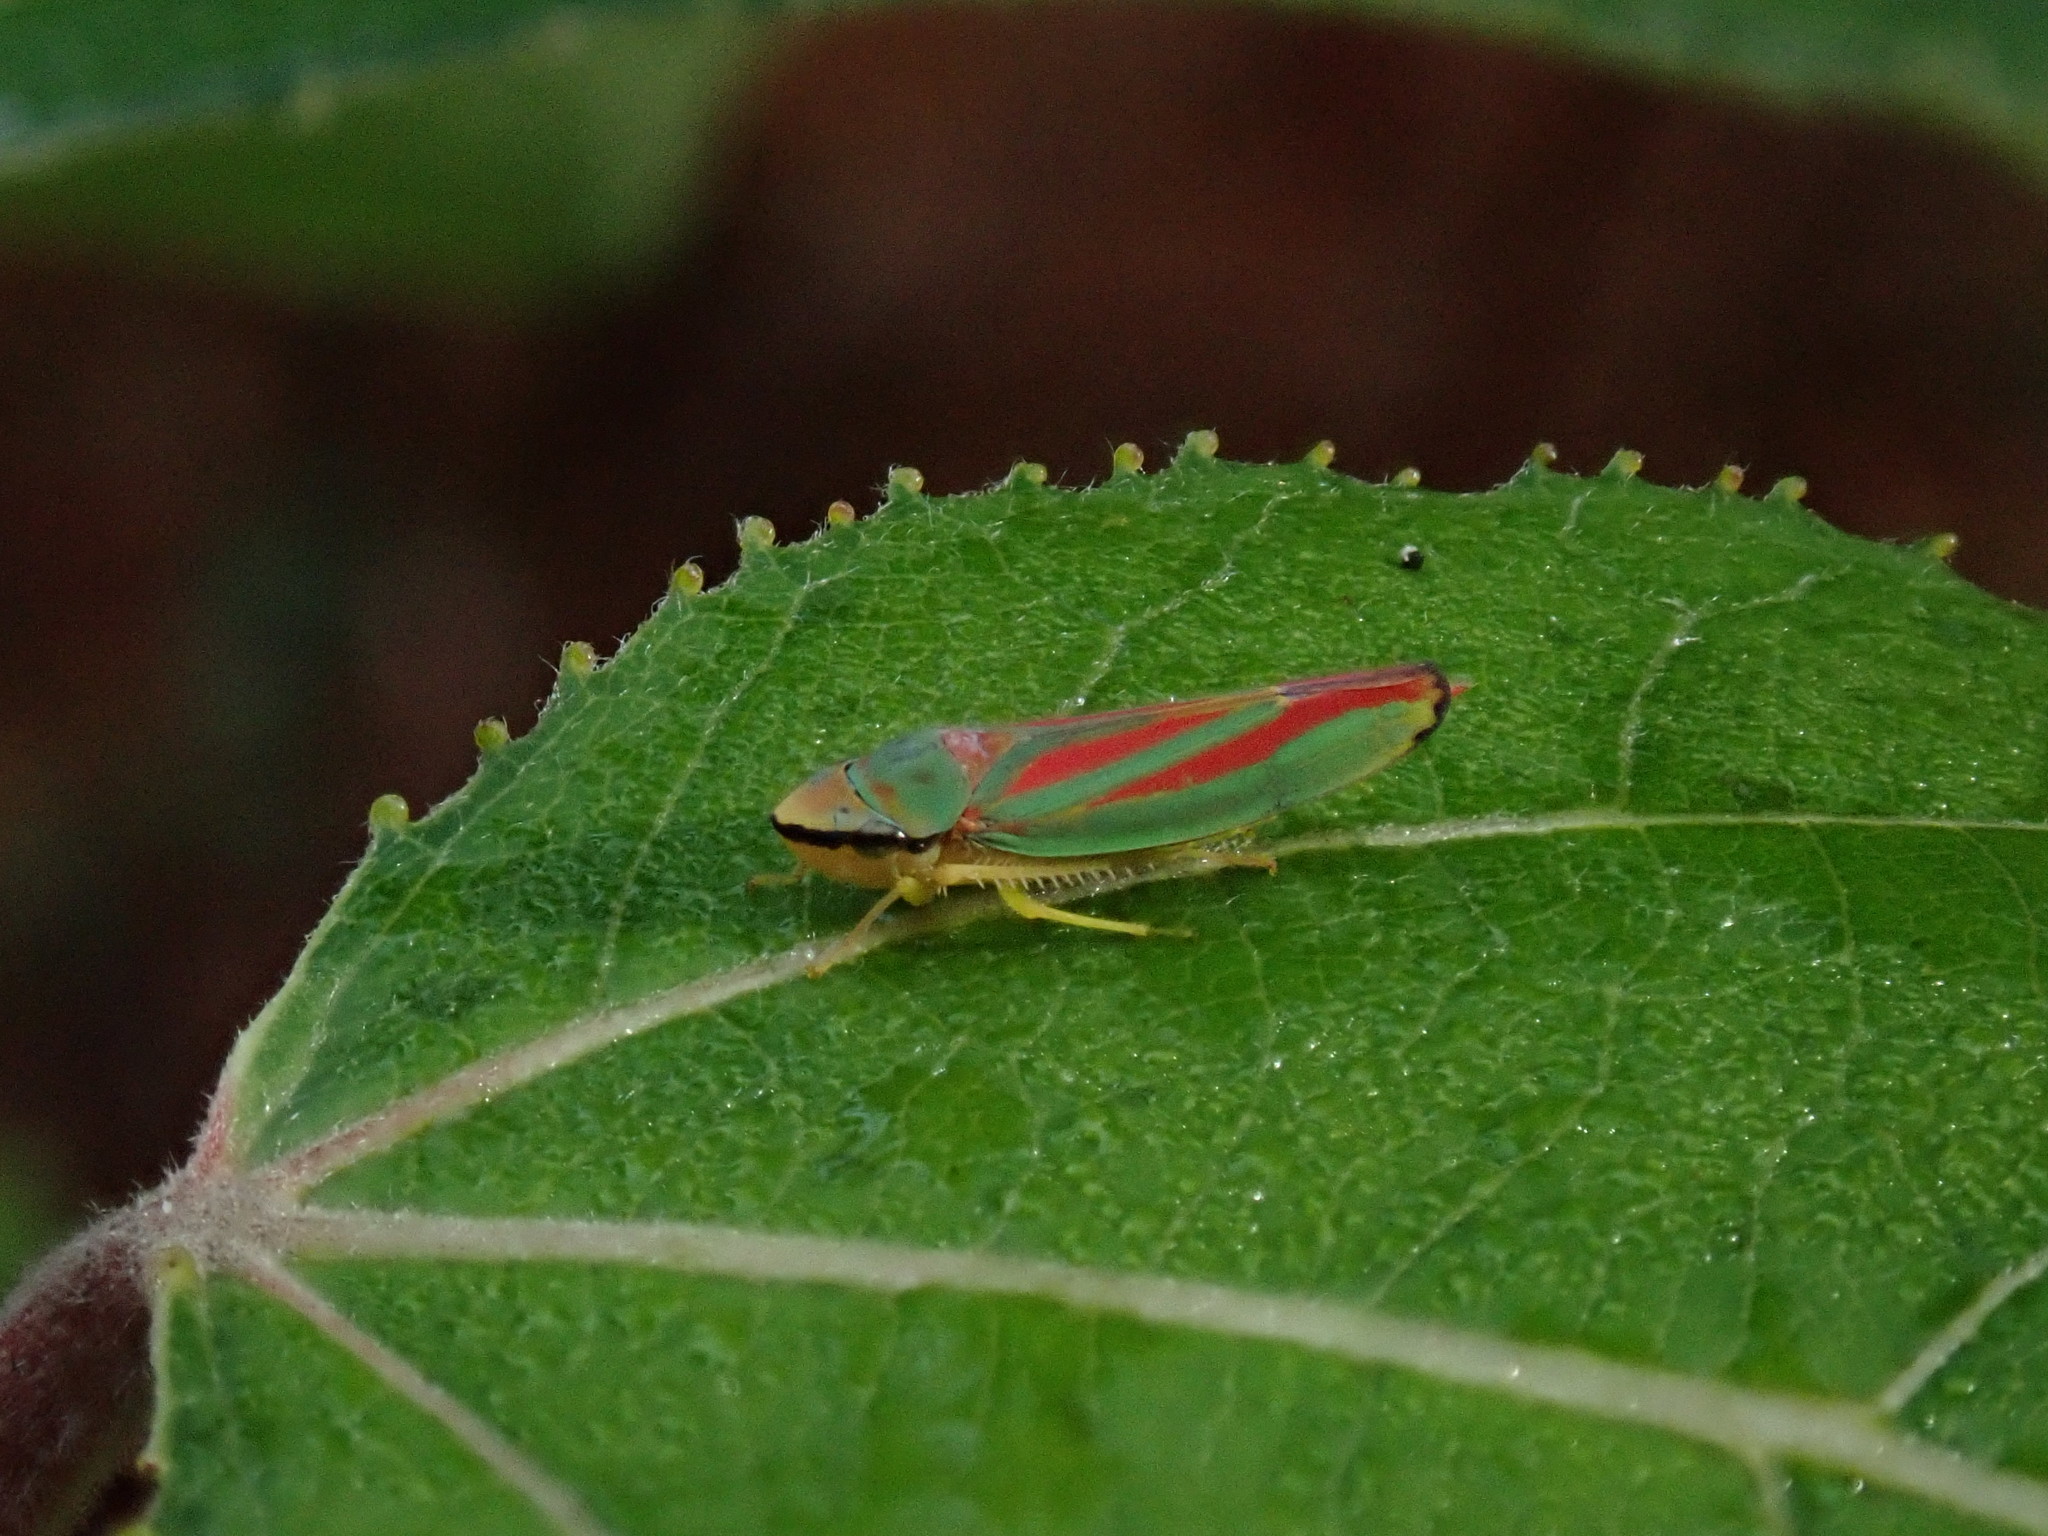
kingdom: Animalia
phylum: Arthropoda
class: Insecta
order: Hemiptera
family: Cicadellidae
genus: Graphocephala
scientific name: Graphocephala coccinea
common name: Candy-striped leafhopper
